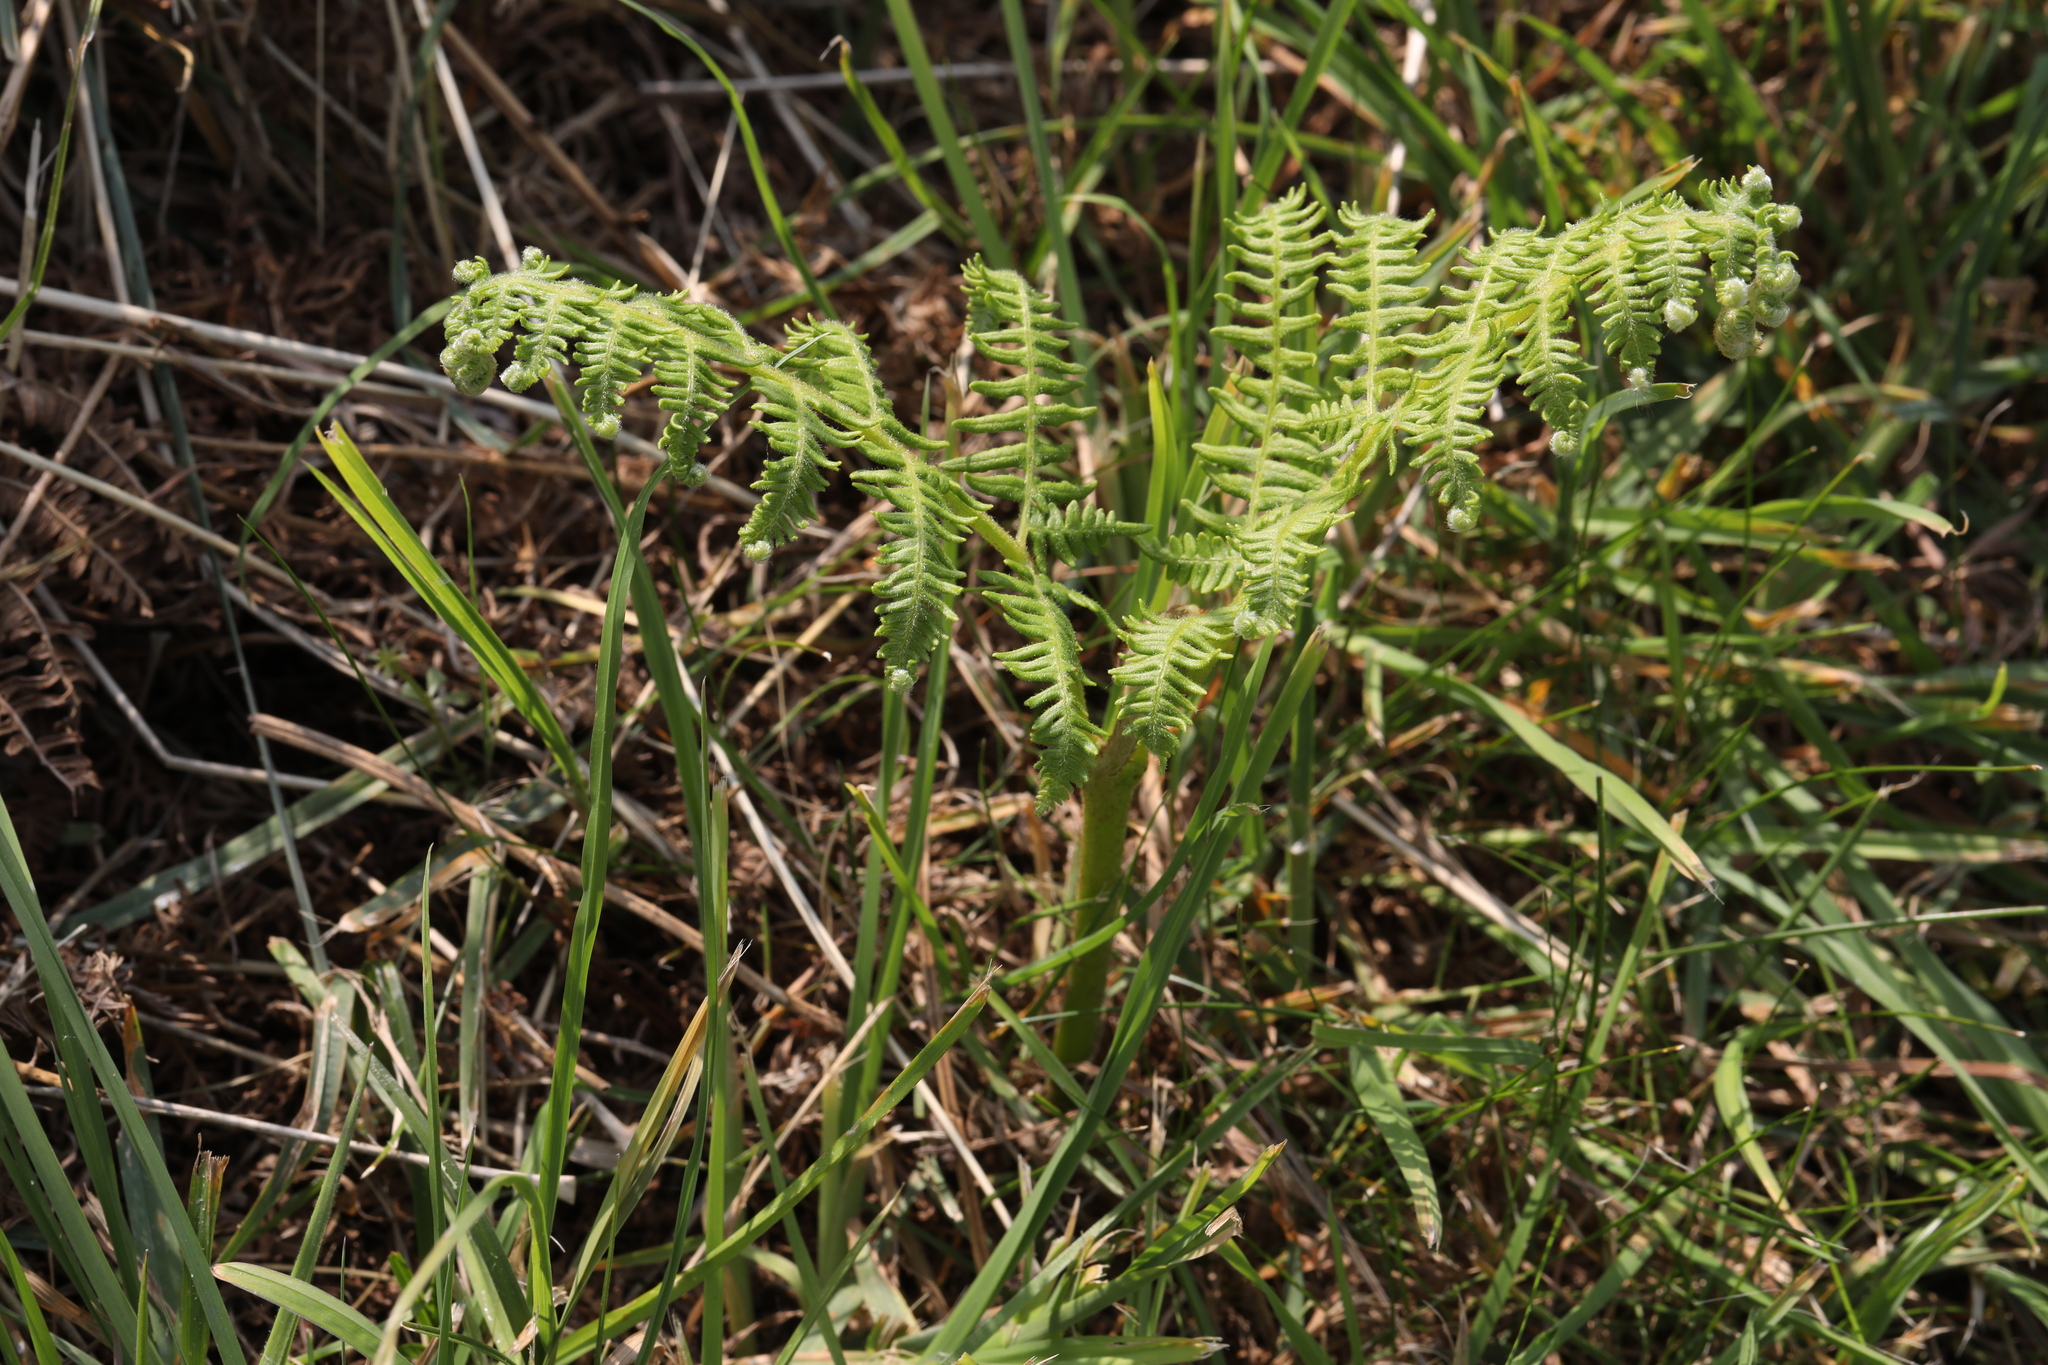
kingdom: Plantae
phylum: Tracheophyta
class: Polypodiopsida
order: Polypodiales
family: Dennstaedtiaceae
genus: Pteridium
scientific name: Pteridium aquilinum
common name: Bracken
